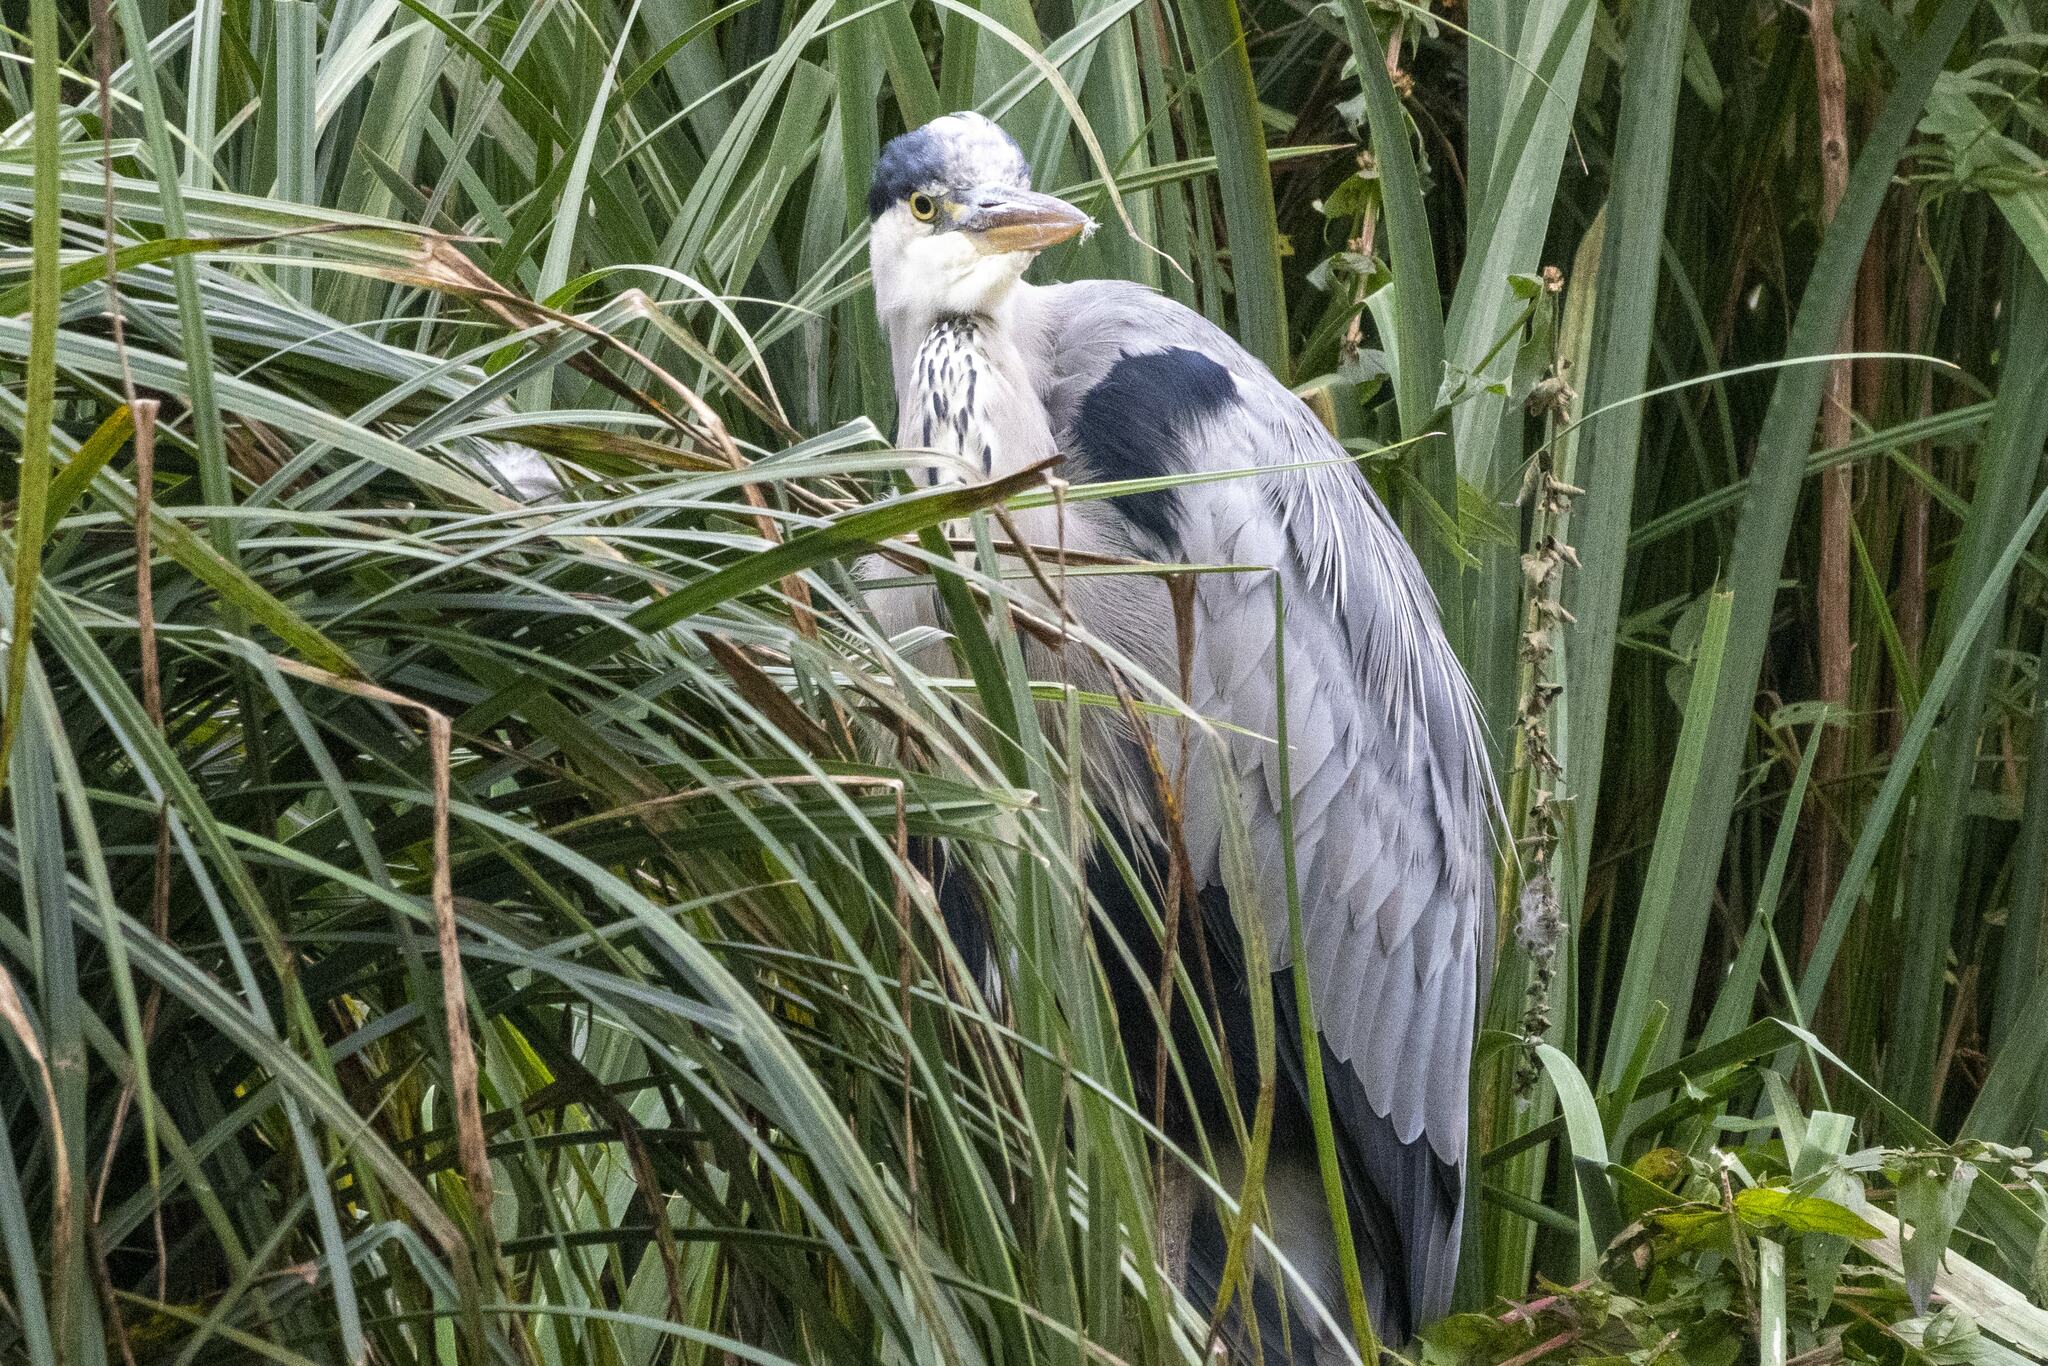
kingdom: Animalia
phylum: Chordata
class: Aves
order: Pelecaniformes
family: Ardeidae
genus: Ardea
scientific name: Ardea cinerea
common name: Grey heron
